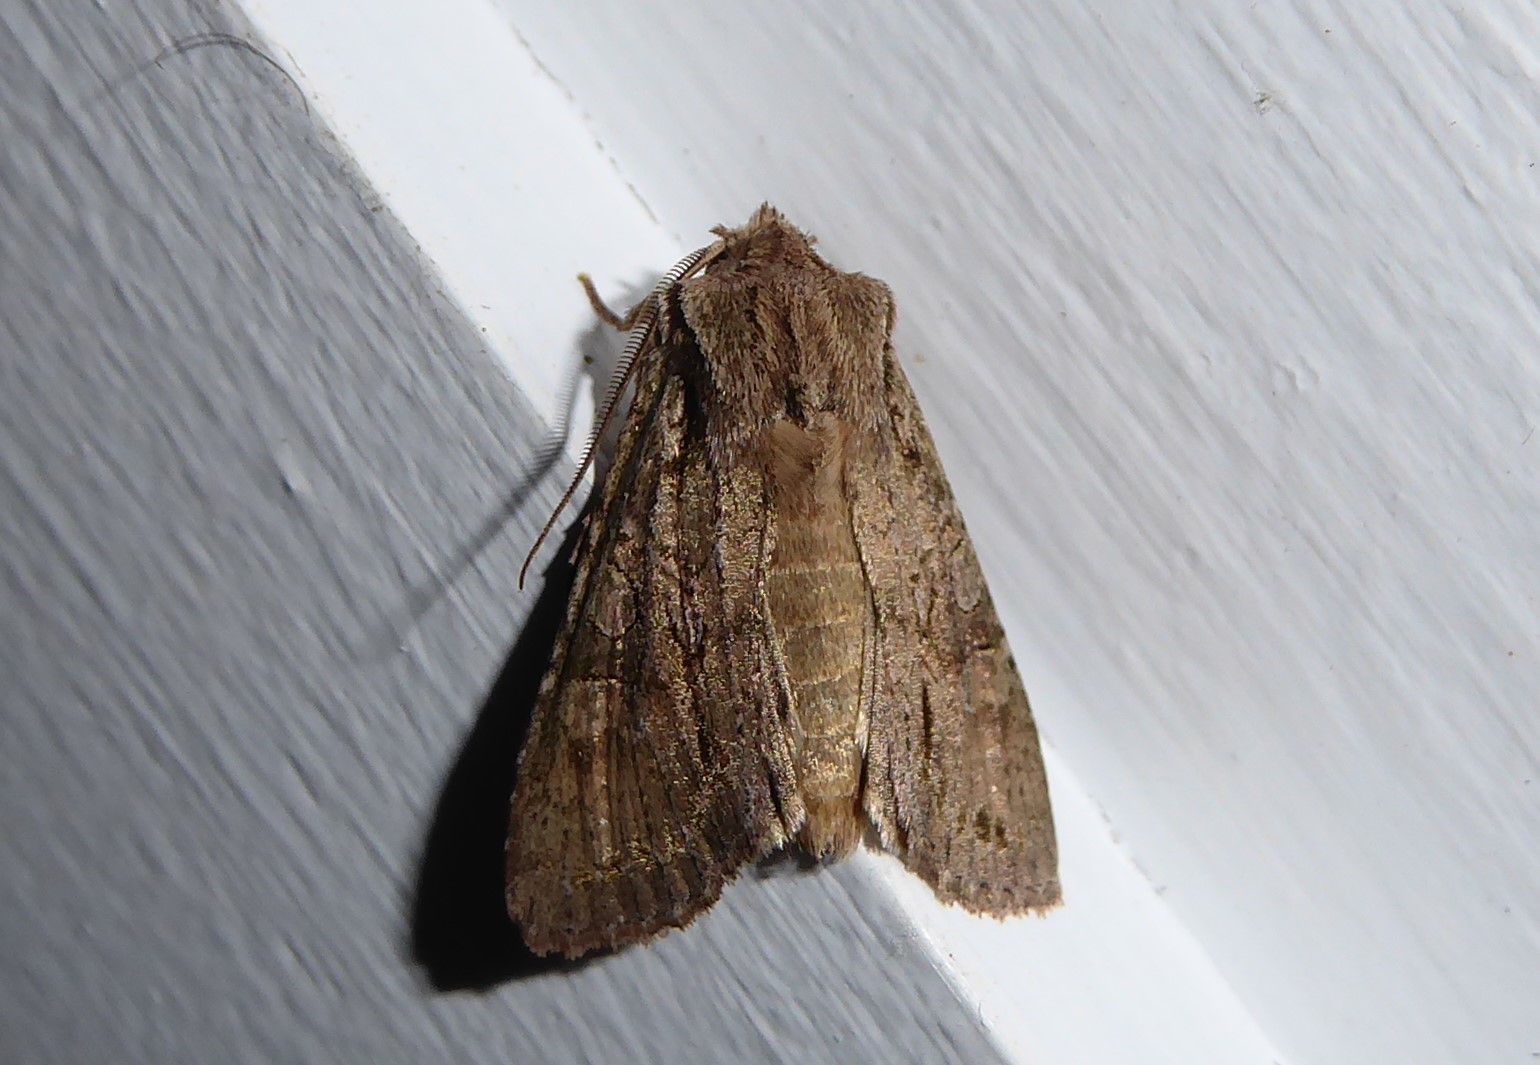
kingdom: Animalia
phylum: Arthropoda
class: Insecta
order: Lepidoptera
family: Noctuidae
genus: Ichneutica
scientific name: Ichneutica
